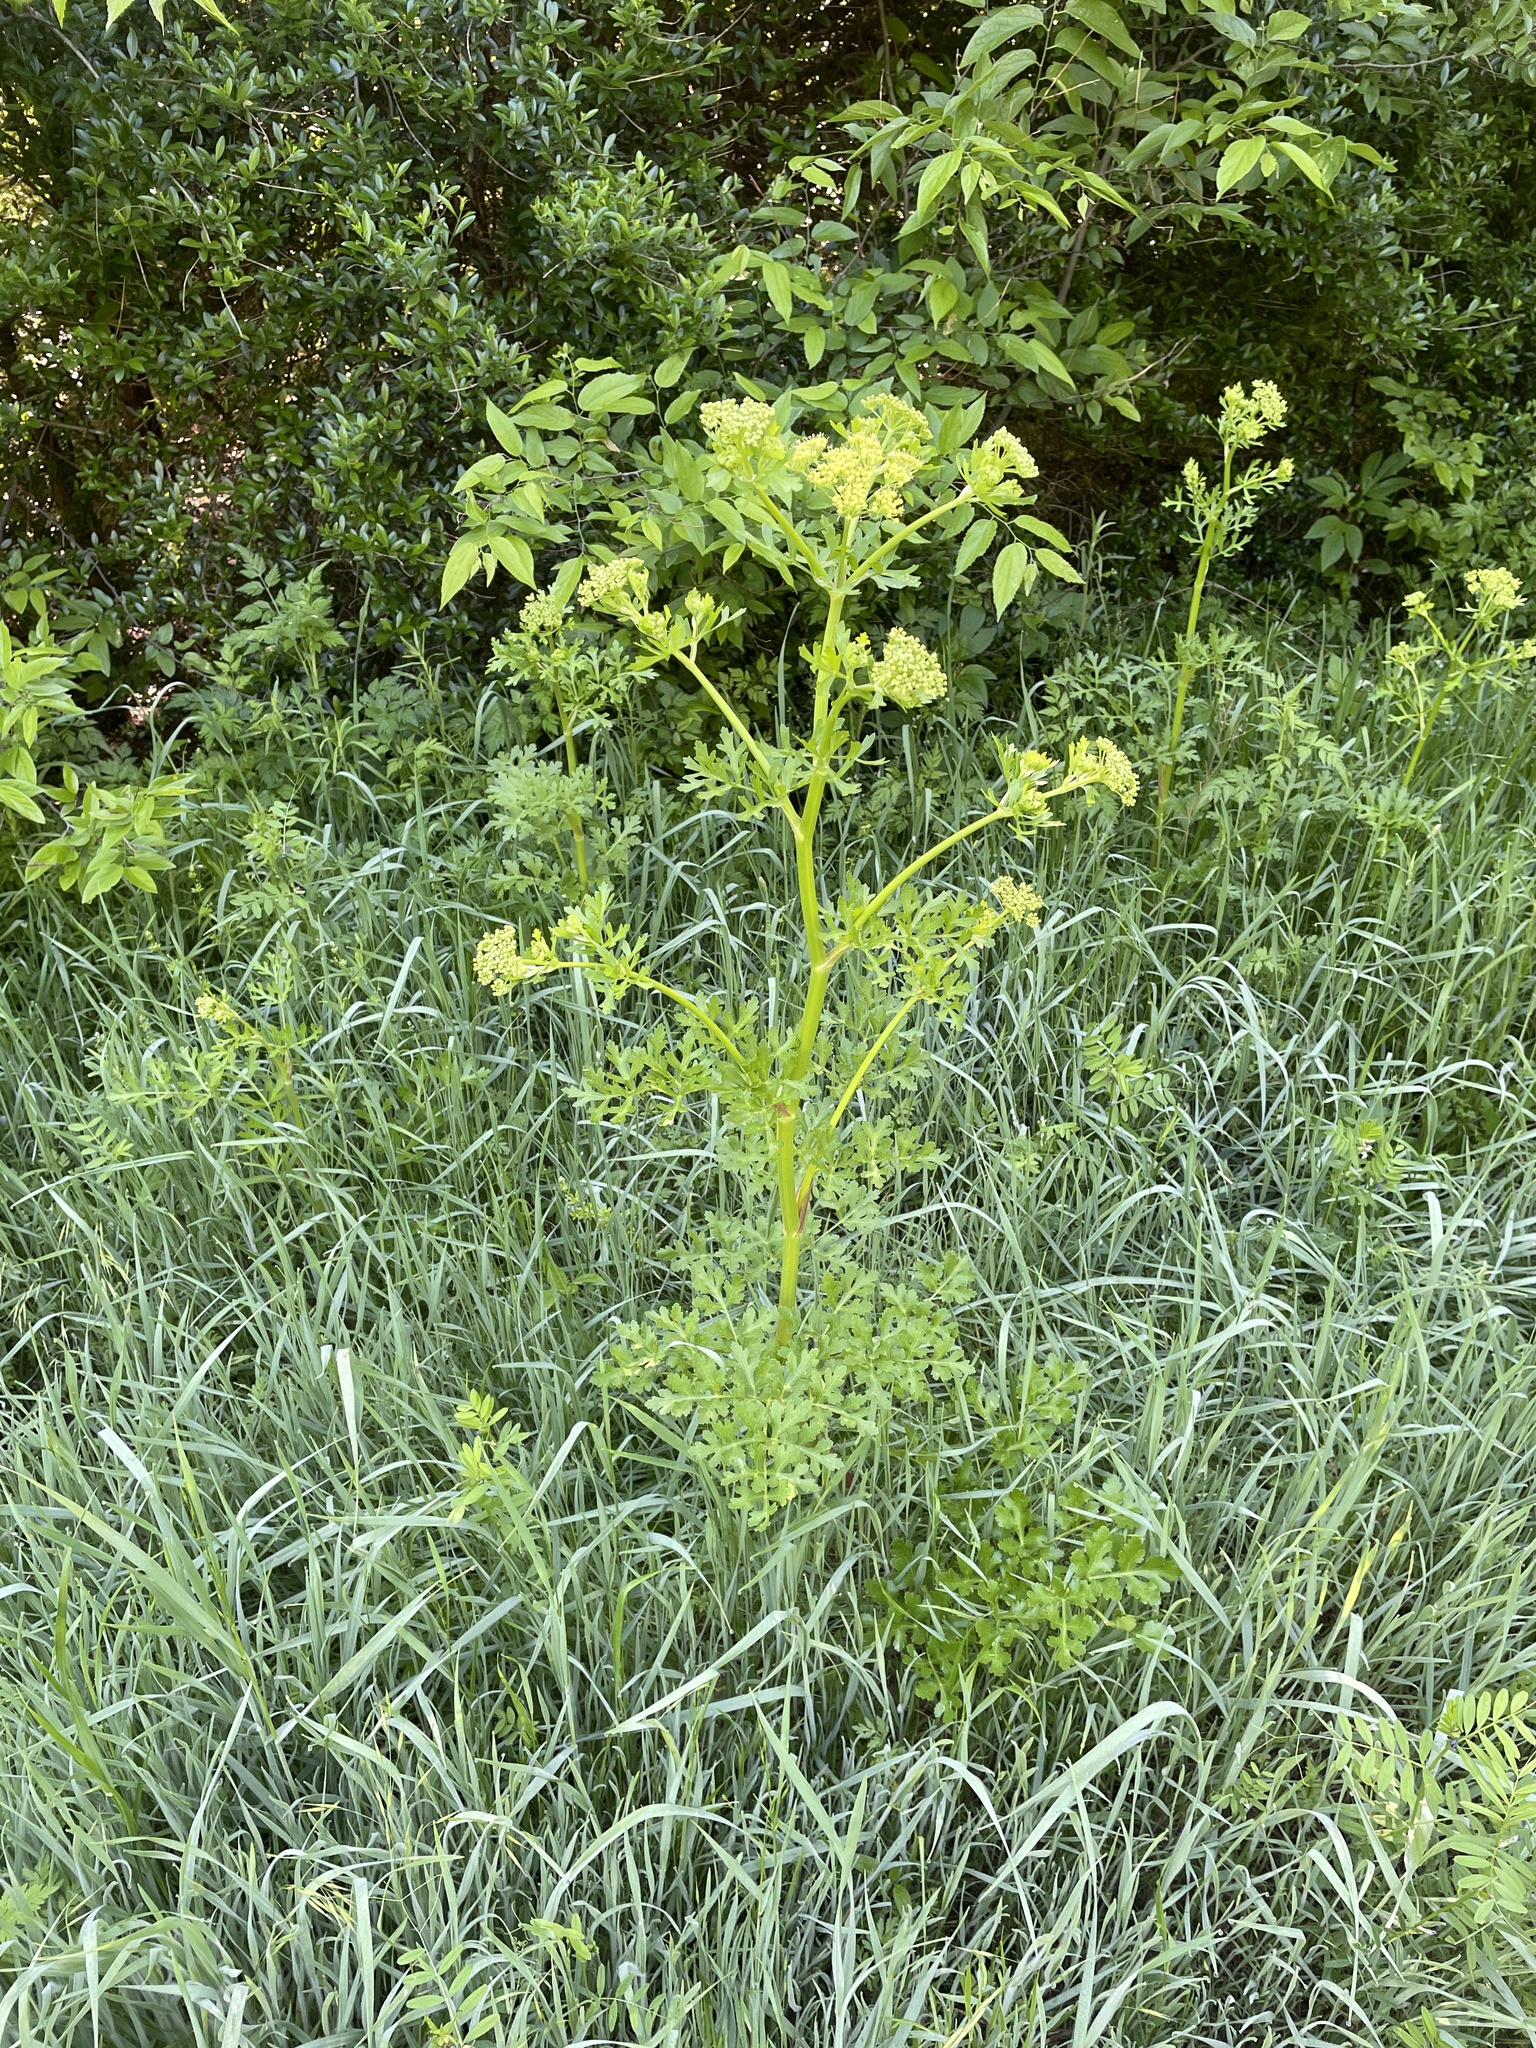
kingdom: Plantae
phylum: Tracheophyta
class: Magnoliopsida
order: Apiales
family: Apiaceae
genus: Polytaenia
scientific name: Polytaenia texana
